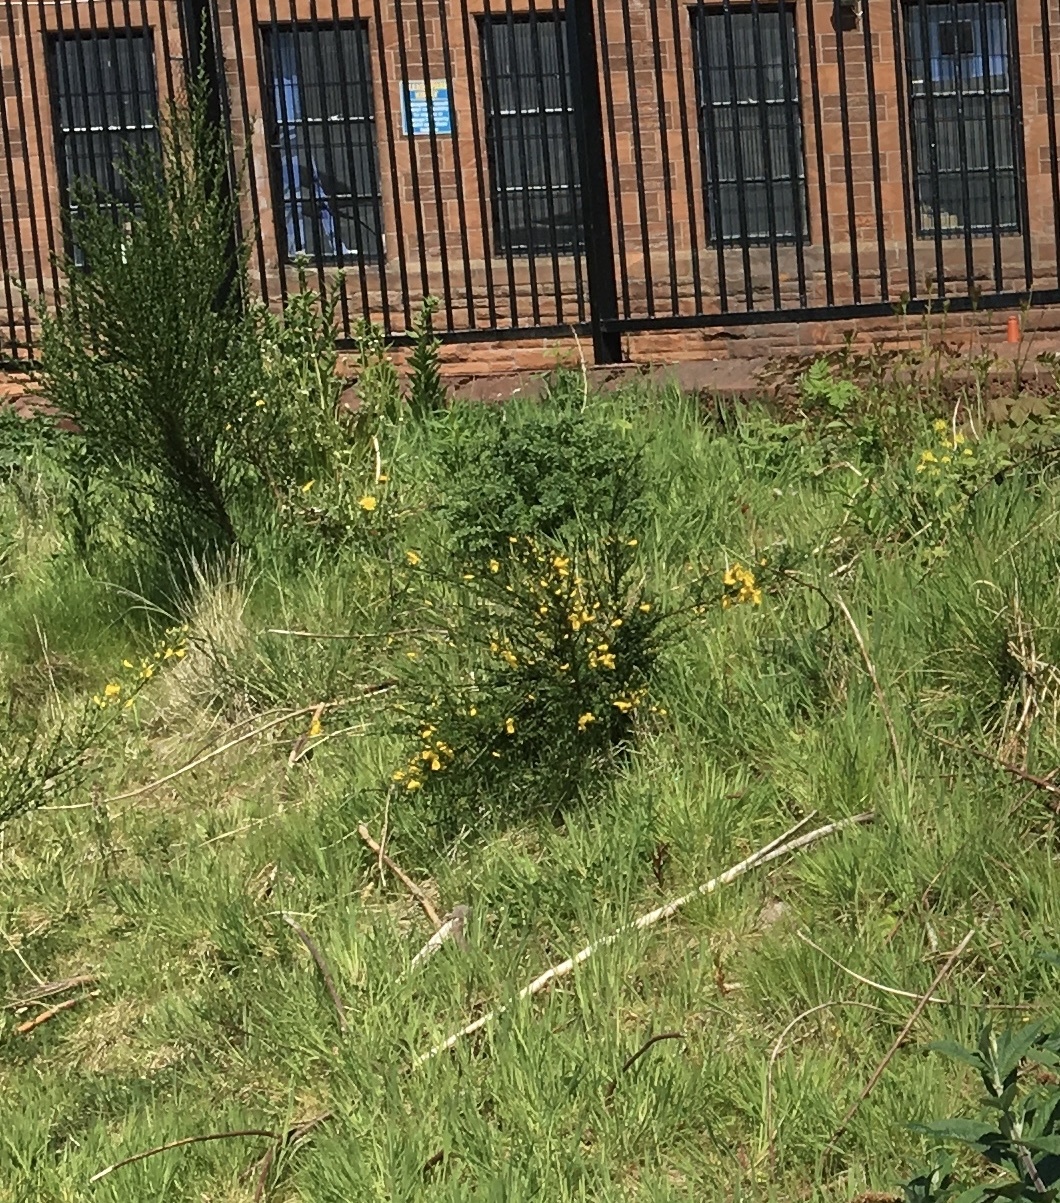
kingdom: Plantae
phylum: Tracheophyta
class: Magnoliopsida
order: Fabales
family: Fabaceae
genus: Cytisus
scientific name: Cytisus scoparius
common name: Scotch broom
